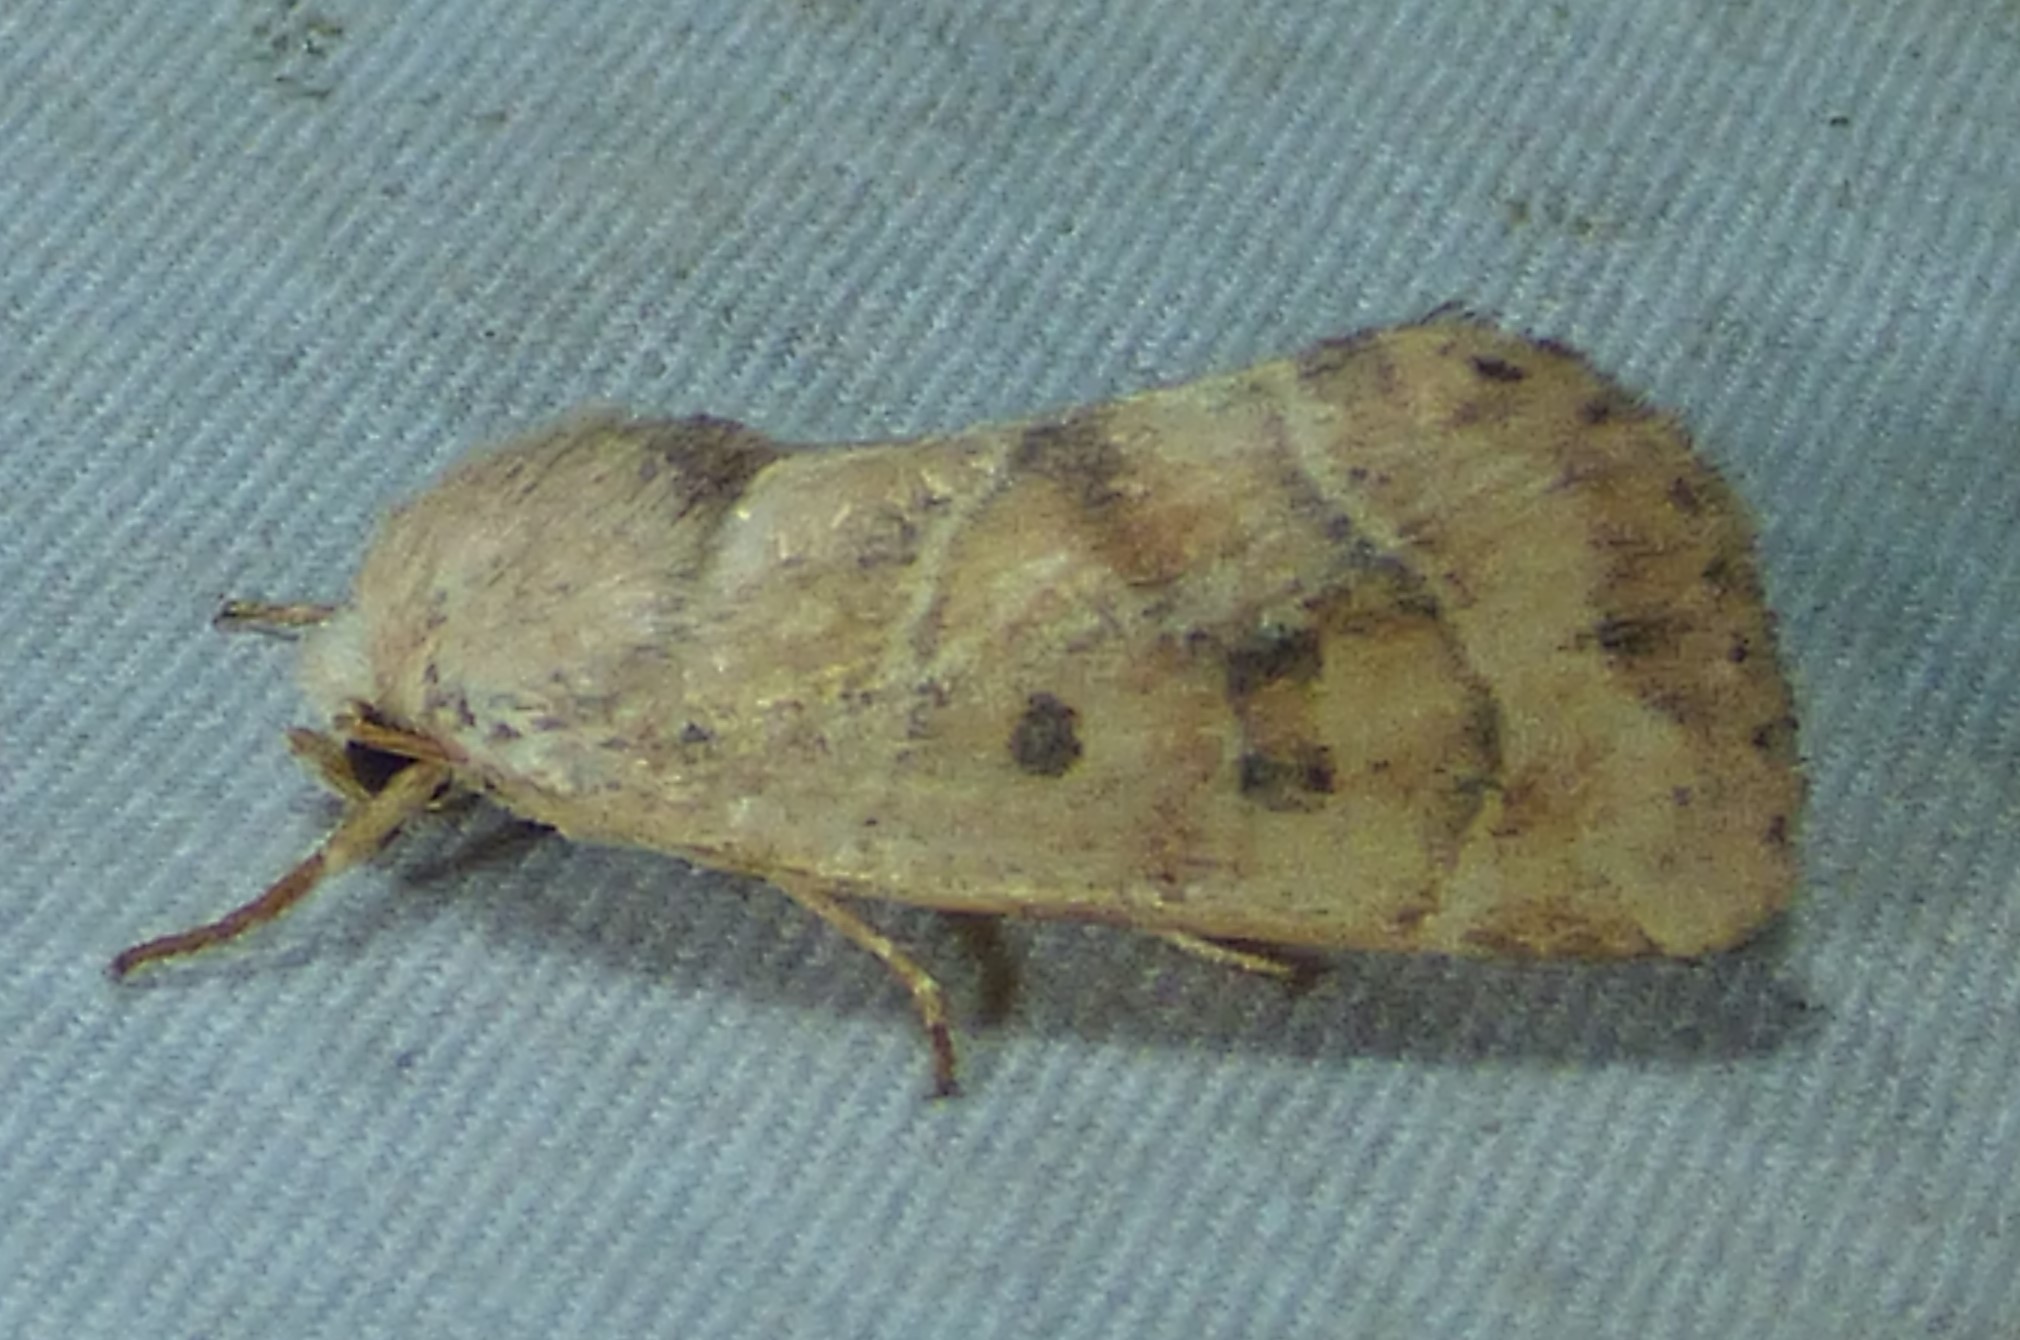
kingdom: Animalia
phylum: Arthropoda
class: Insecta
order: Lepidoptera
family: Noctuidae
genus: Cosmia
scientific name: Cosmia calami
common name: American dun-bar moth
